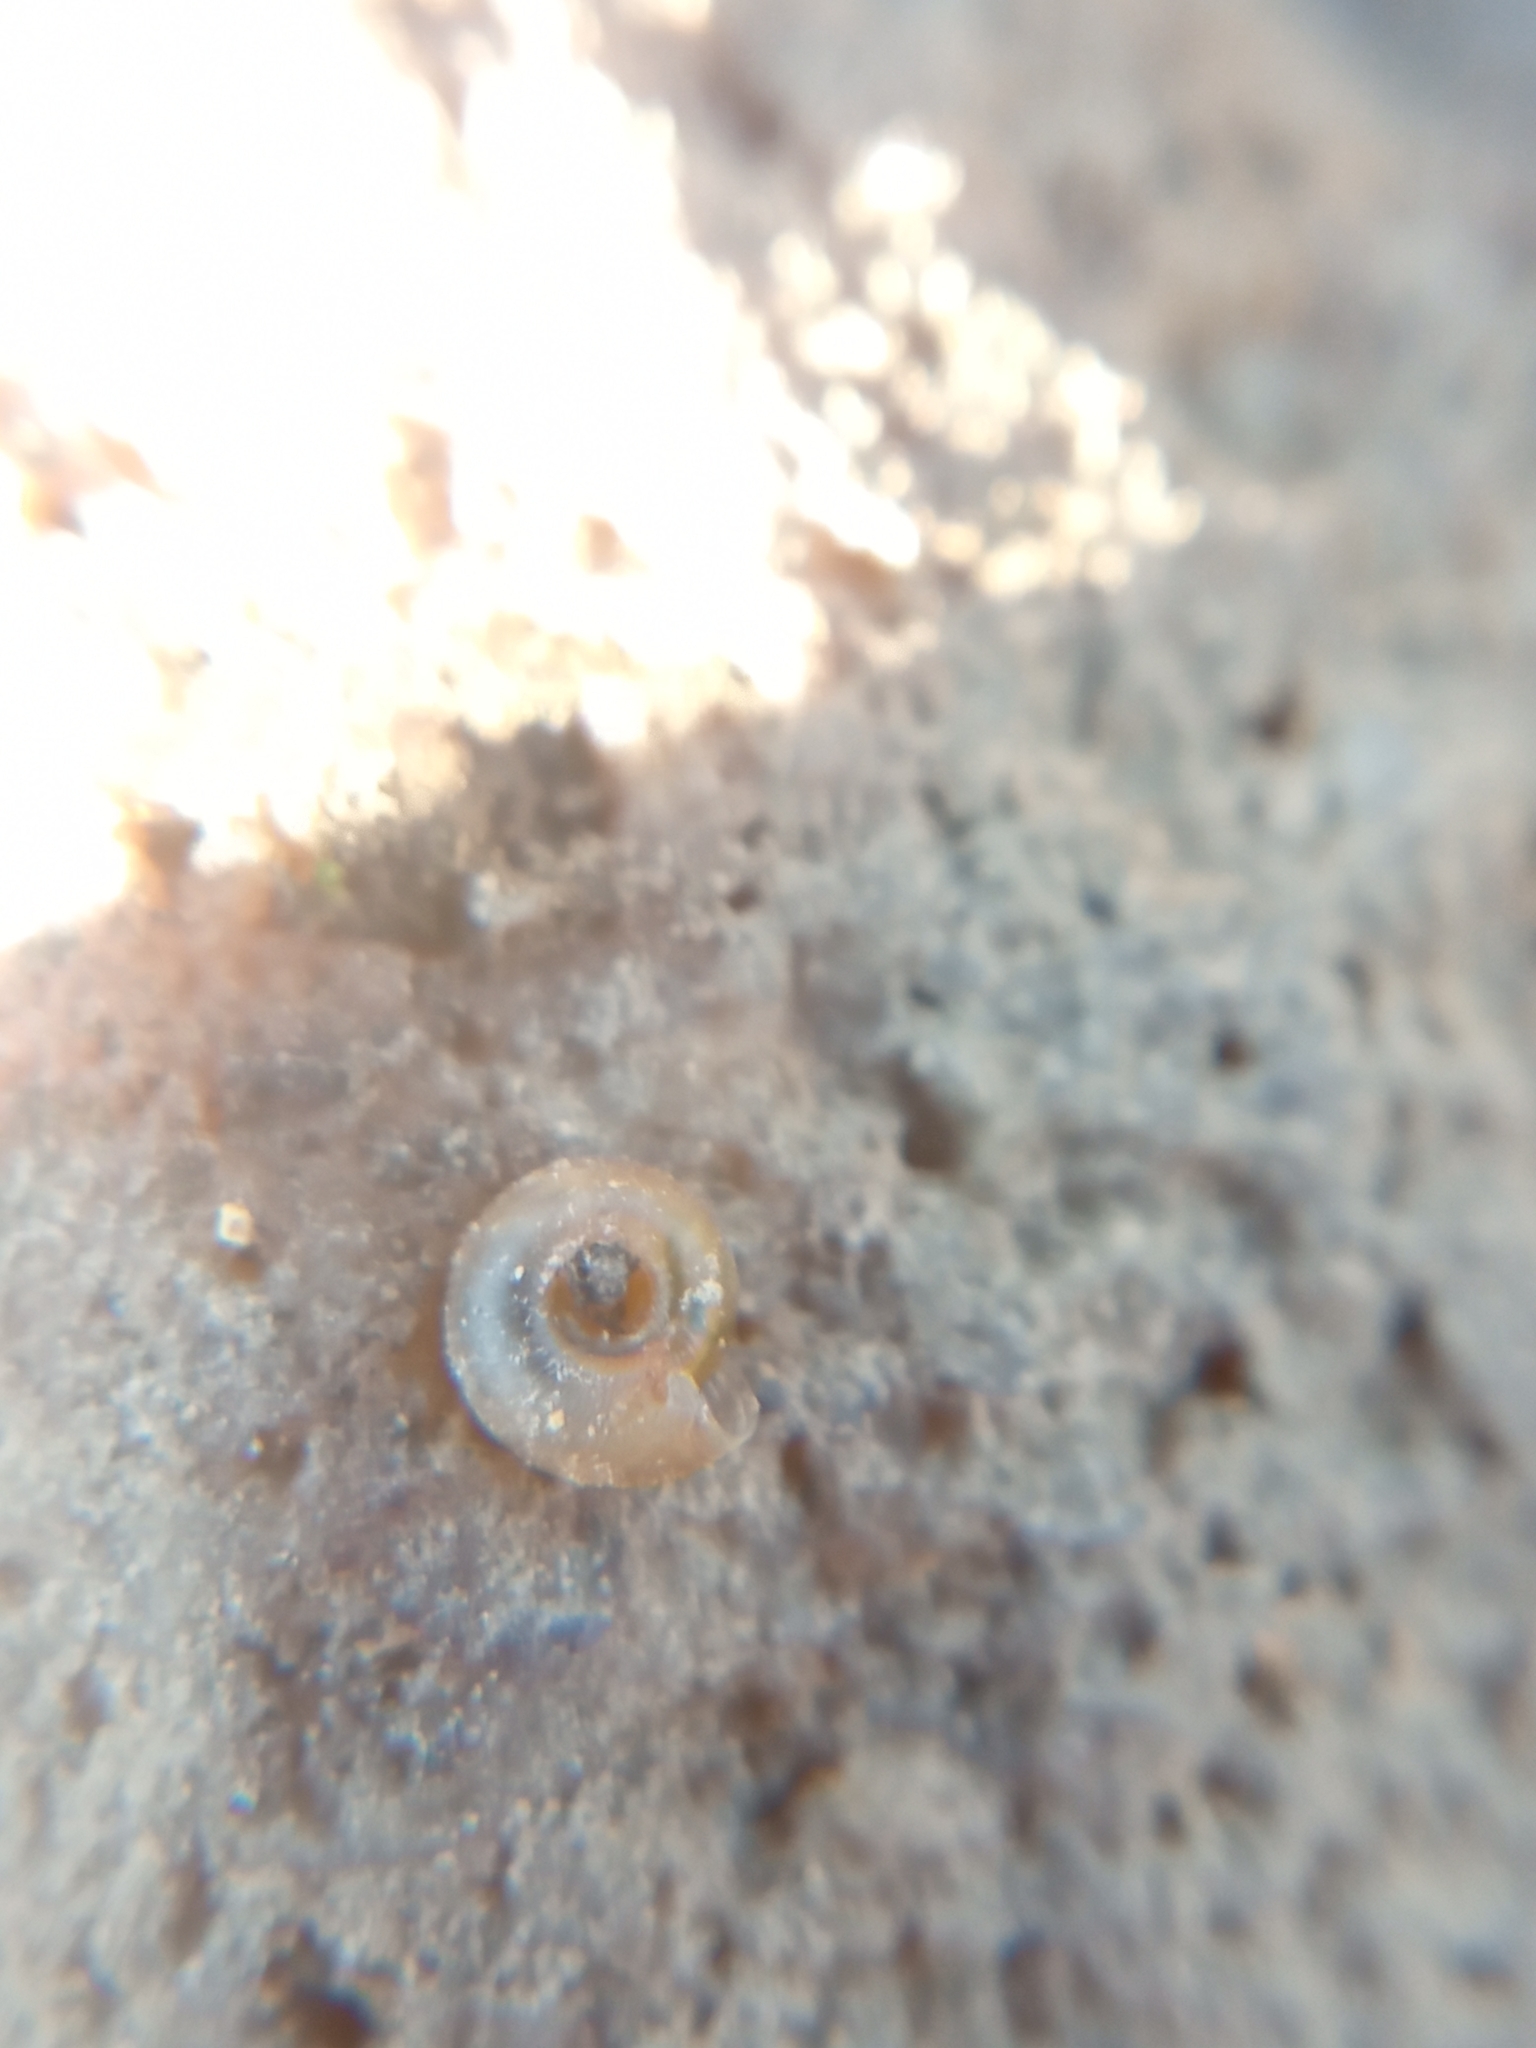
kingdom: Animalia
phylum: Mollusca
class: Gastropoda
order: Stylommatophora
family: Discidae
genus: Discus
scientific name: Discus rotundatus
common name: Rounded snail
